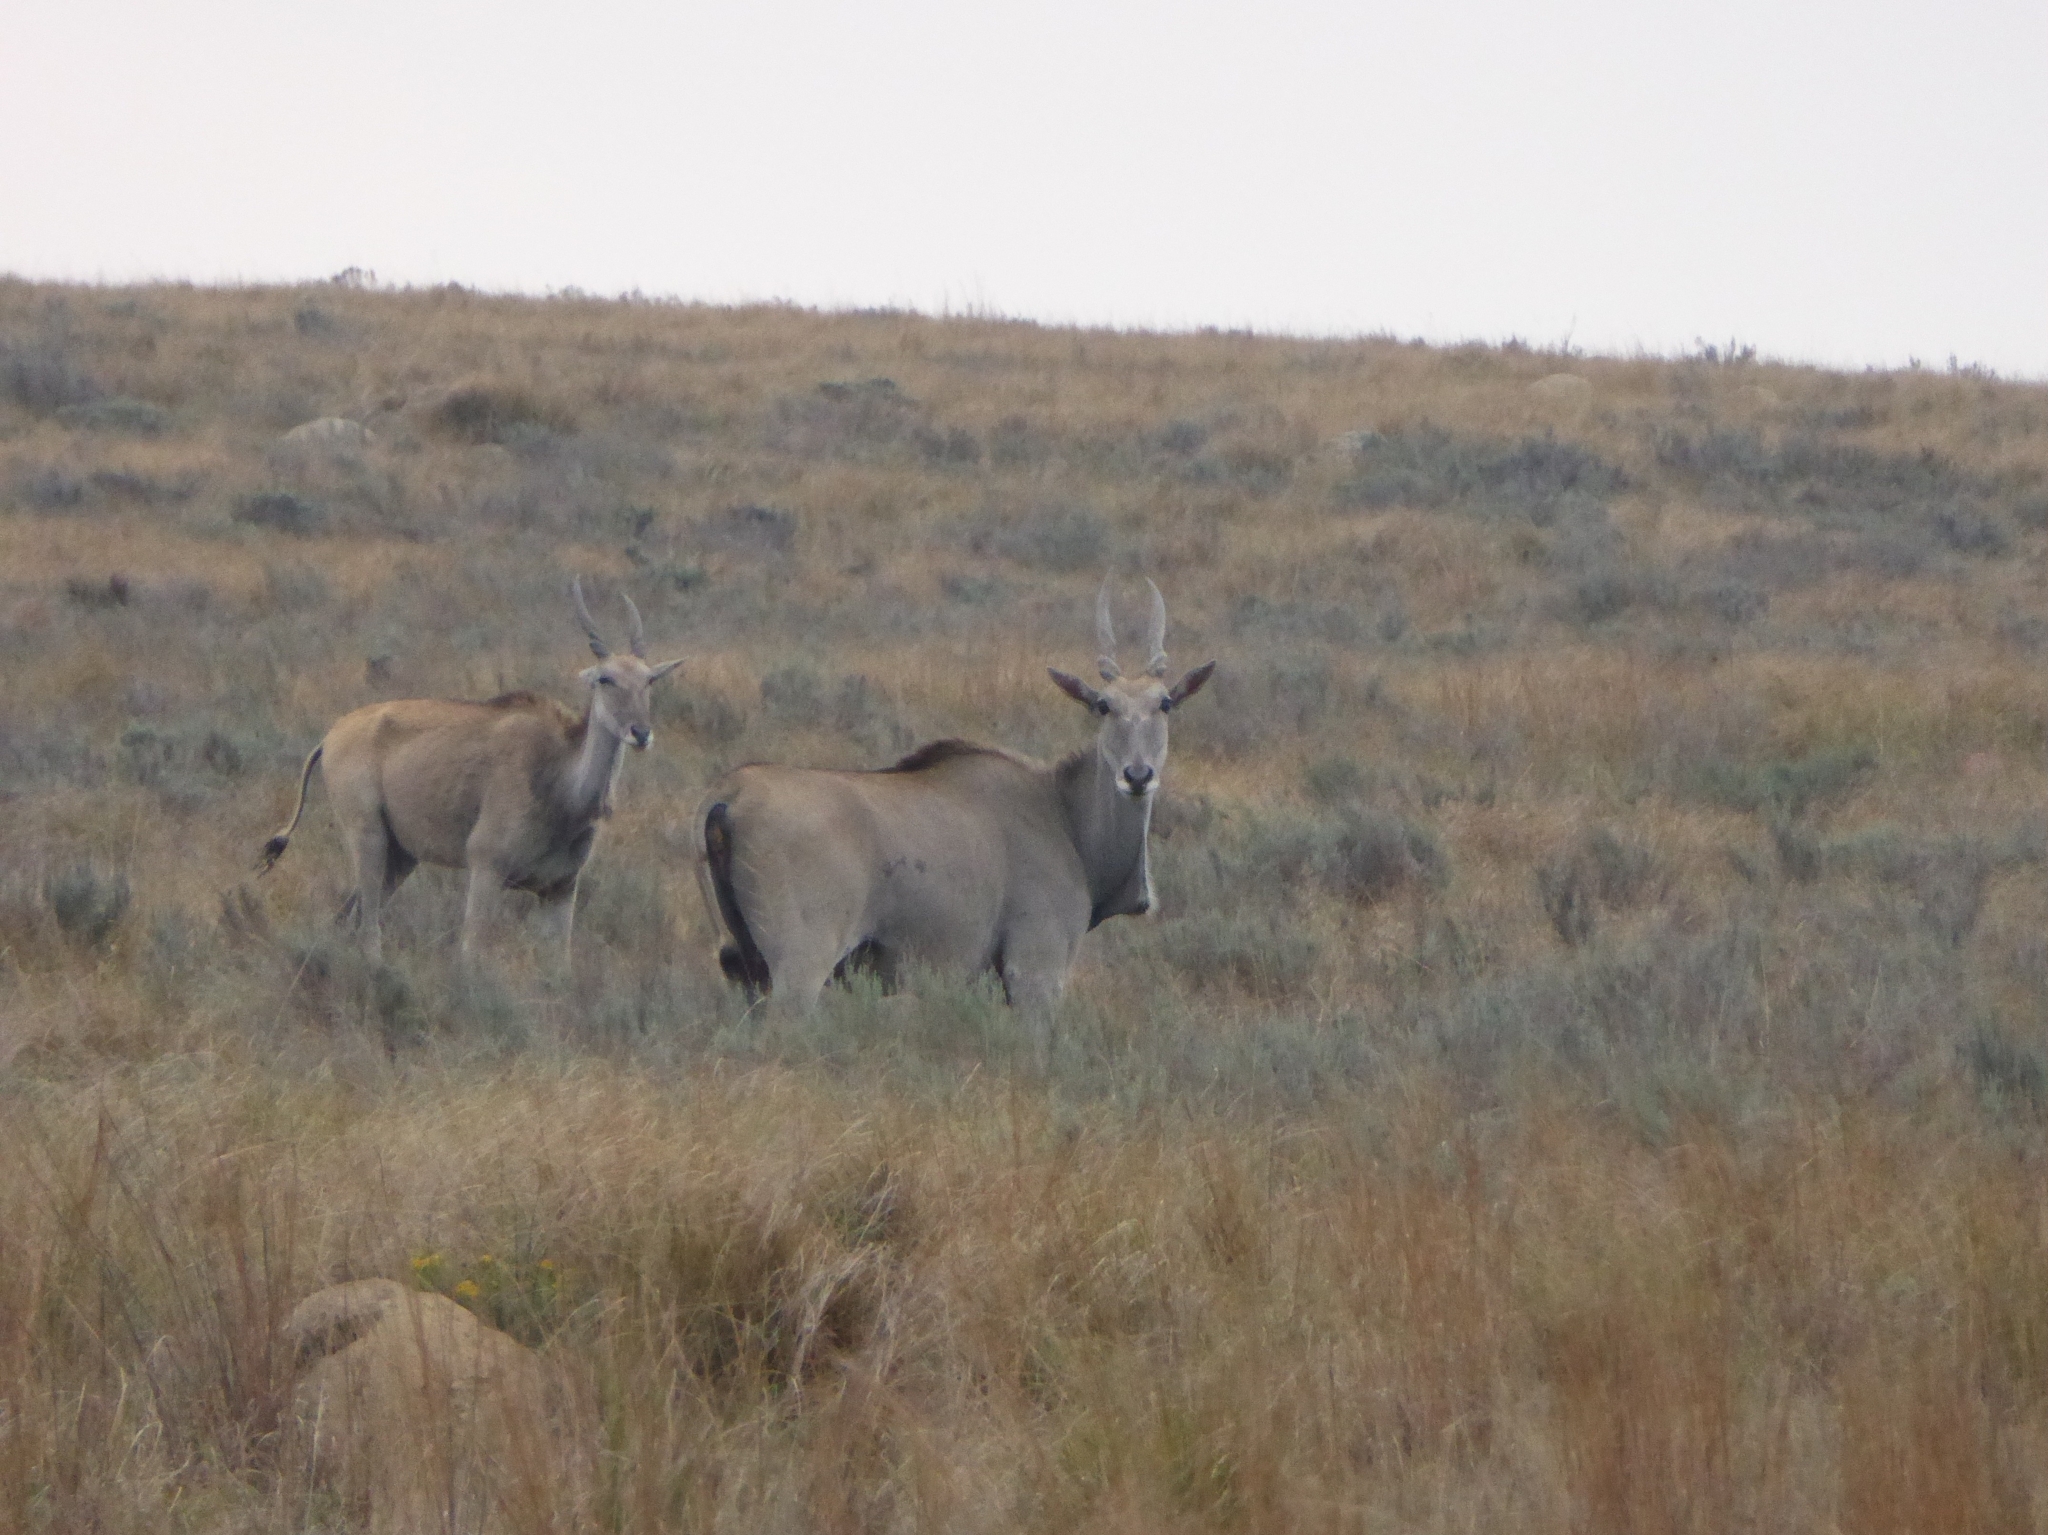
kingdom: Animalia
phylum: Chordata
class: Mammalia
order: Artiodactyla
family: Bovidae
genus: Taurotragus
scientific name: Taurotragus oryx
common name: Common eland
